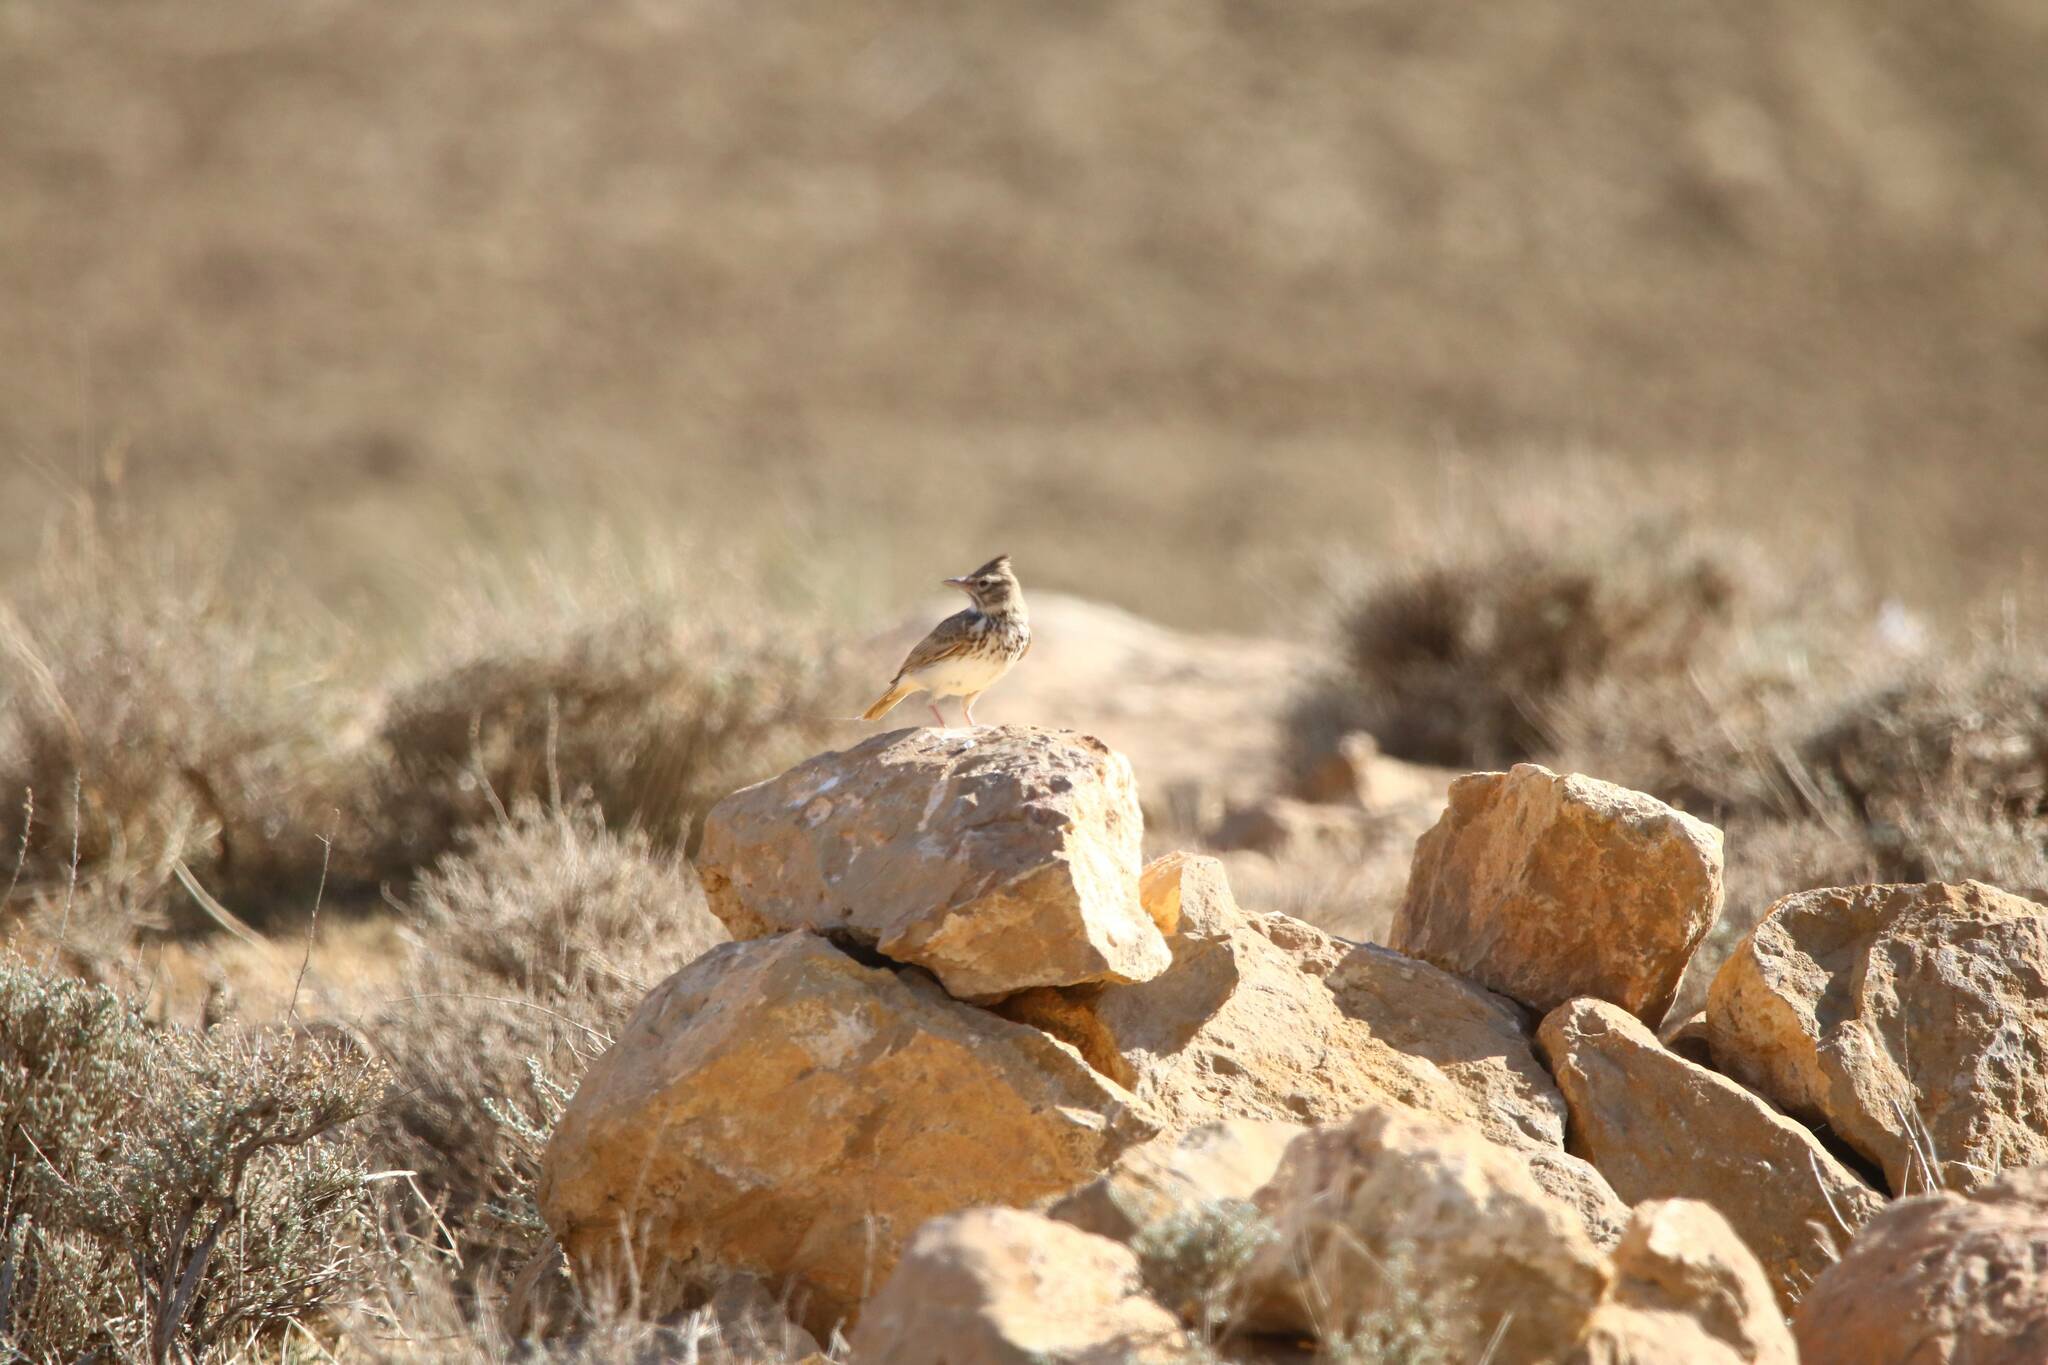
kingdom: Animalia
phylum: Chordata
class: Aves
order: Passeriformes
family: Alaudidae
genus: Galerida
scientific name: Galerida theklae
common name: Thekla lark
